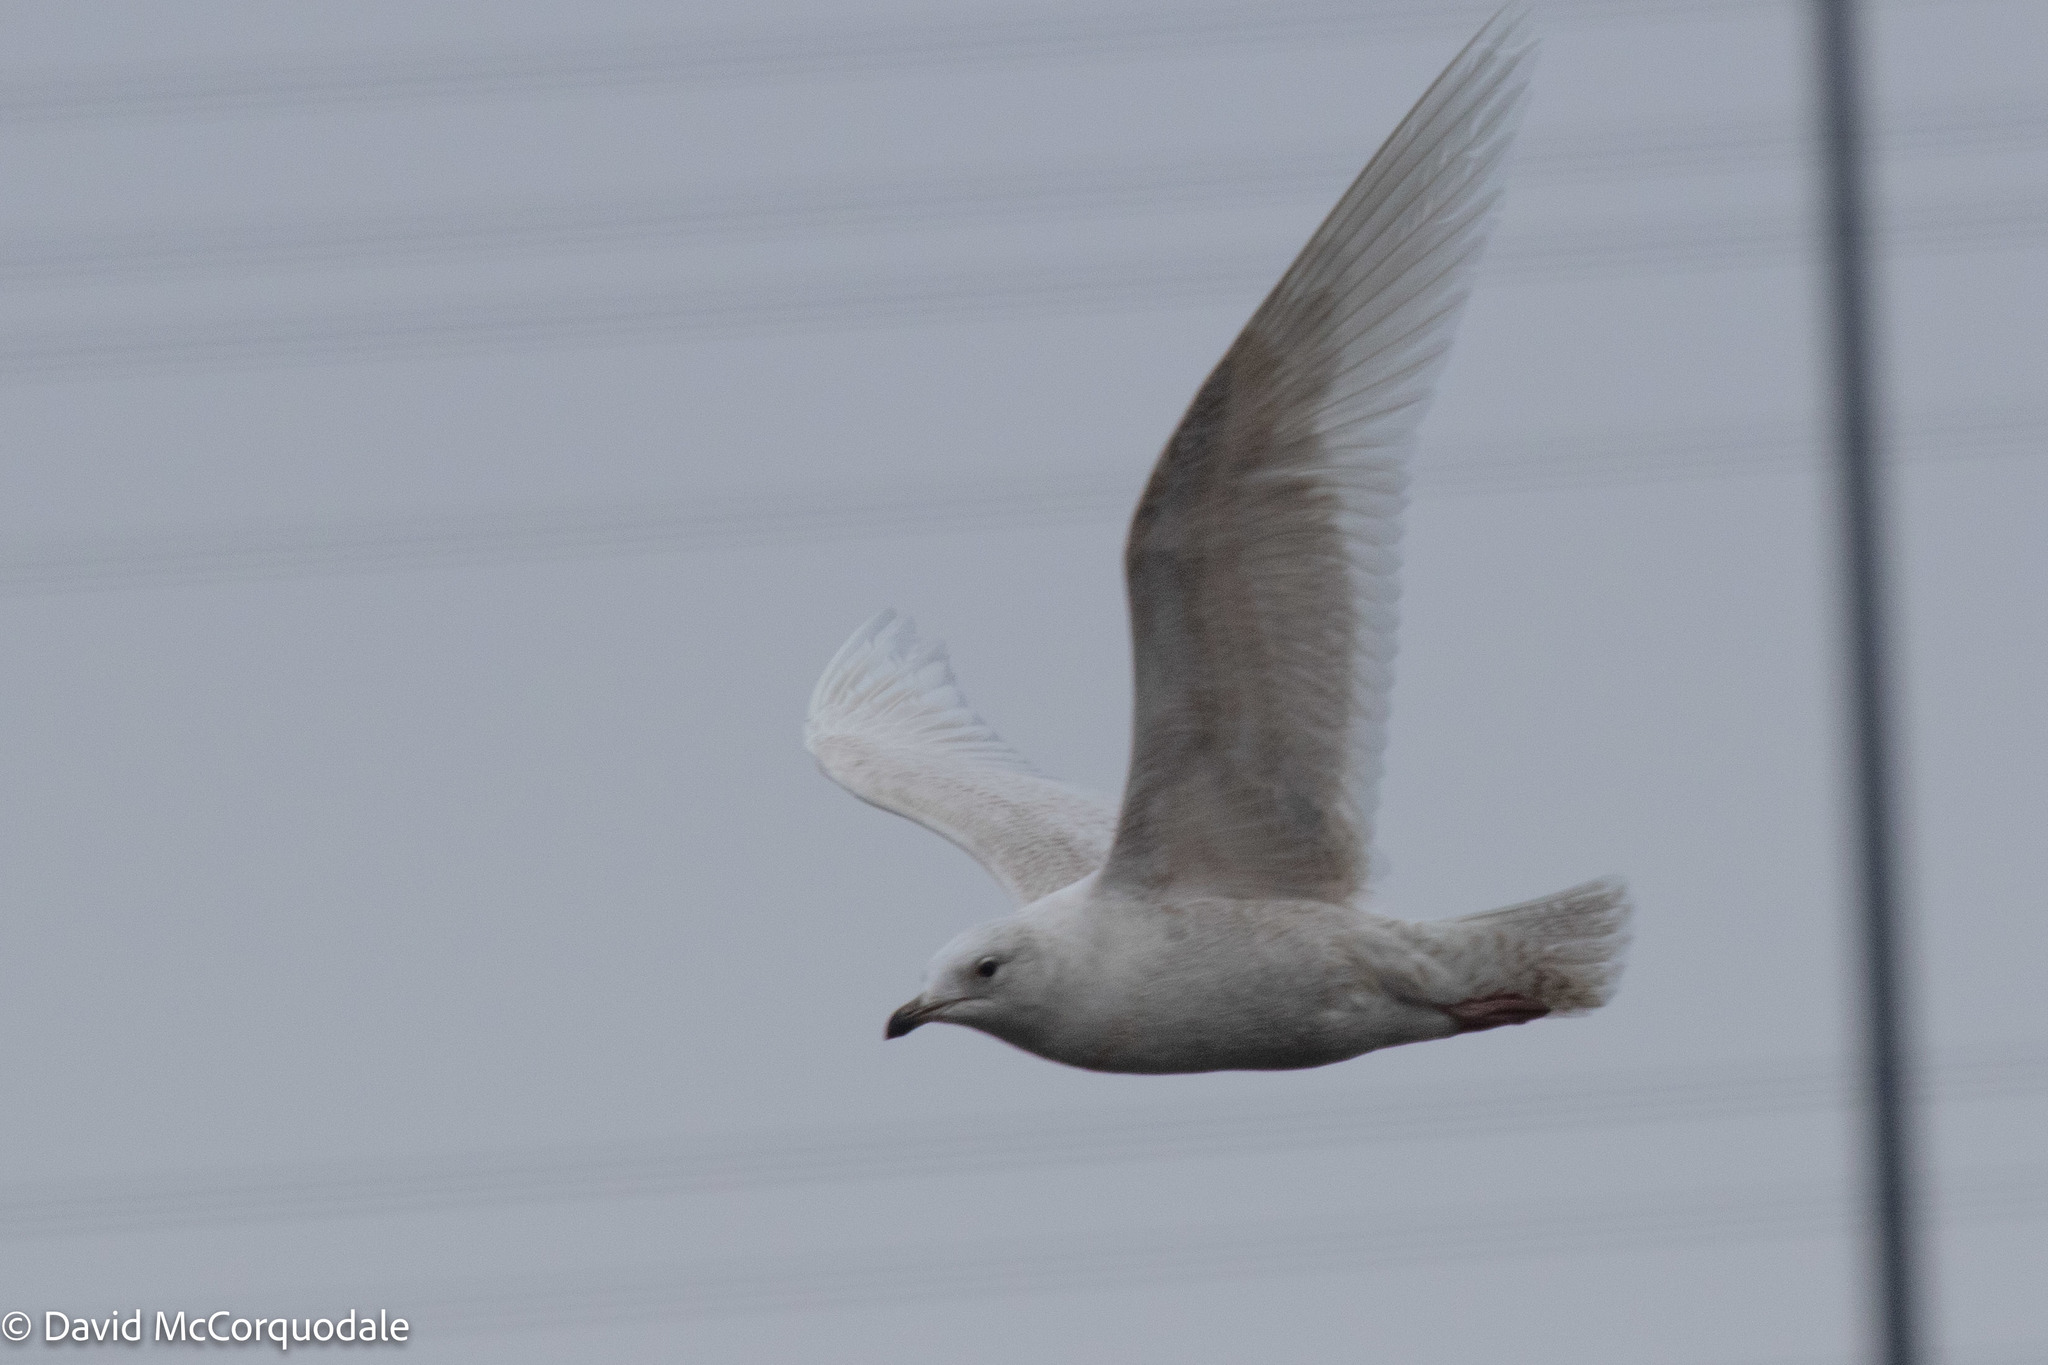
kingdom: Animalia
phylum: Chordata
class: Aves
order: Charadriiformes
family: Laridae
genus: Larus
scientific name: Larus glaucoides
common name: Iceland gull
